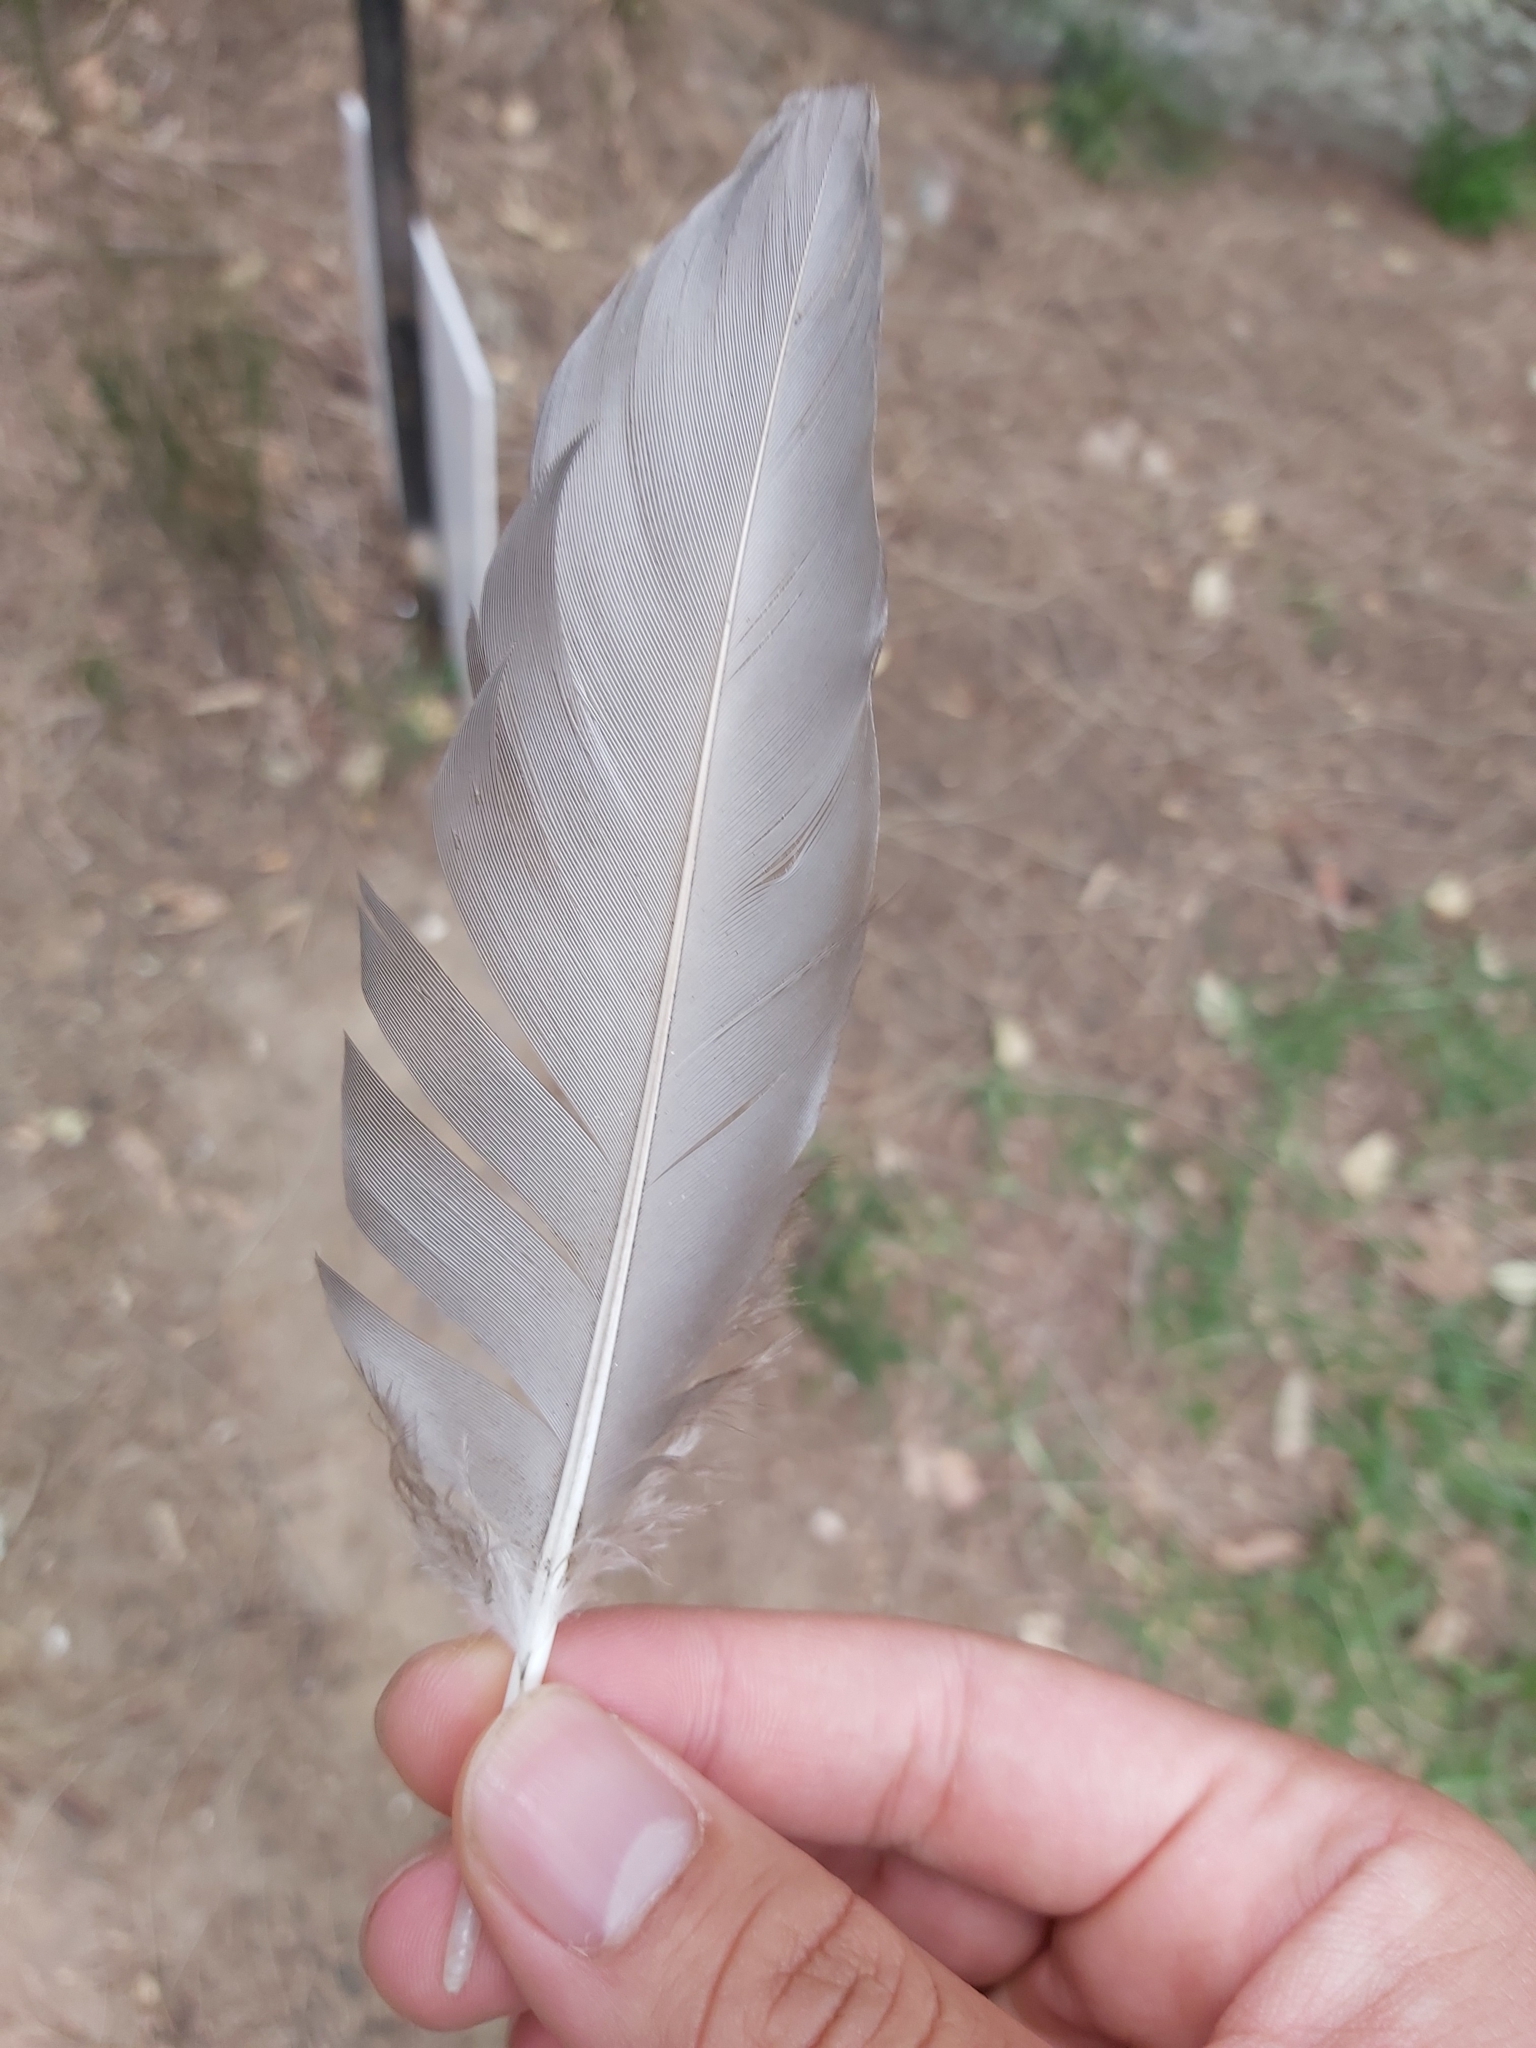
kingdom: Animalia
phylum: Chordata
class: Aves
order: Anseriformes
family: Anatidae
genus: Chenonetta
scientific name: Chenonetta jubata
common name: Maned duck
